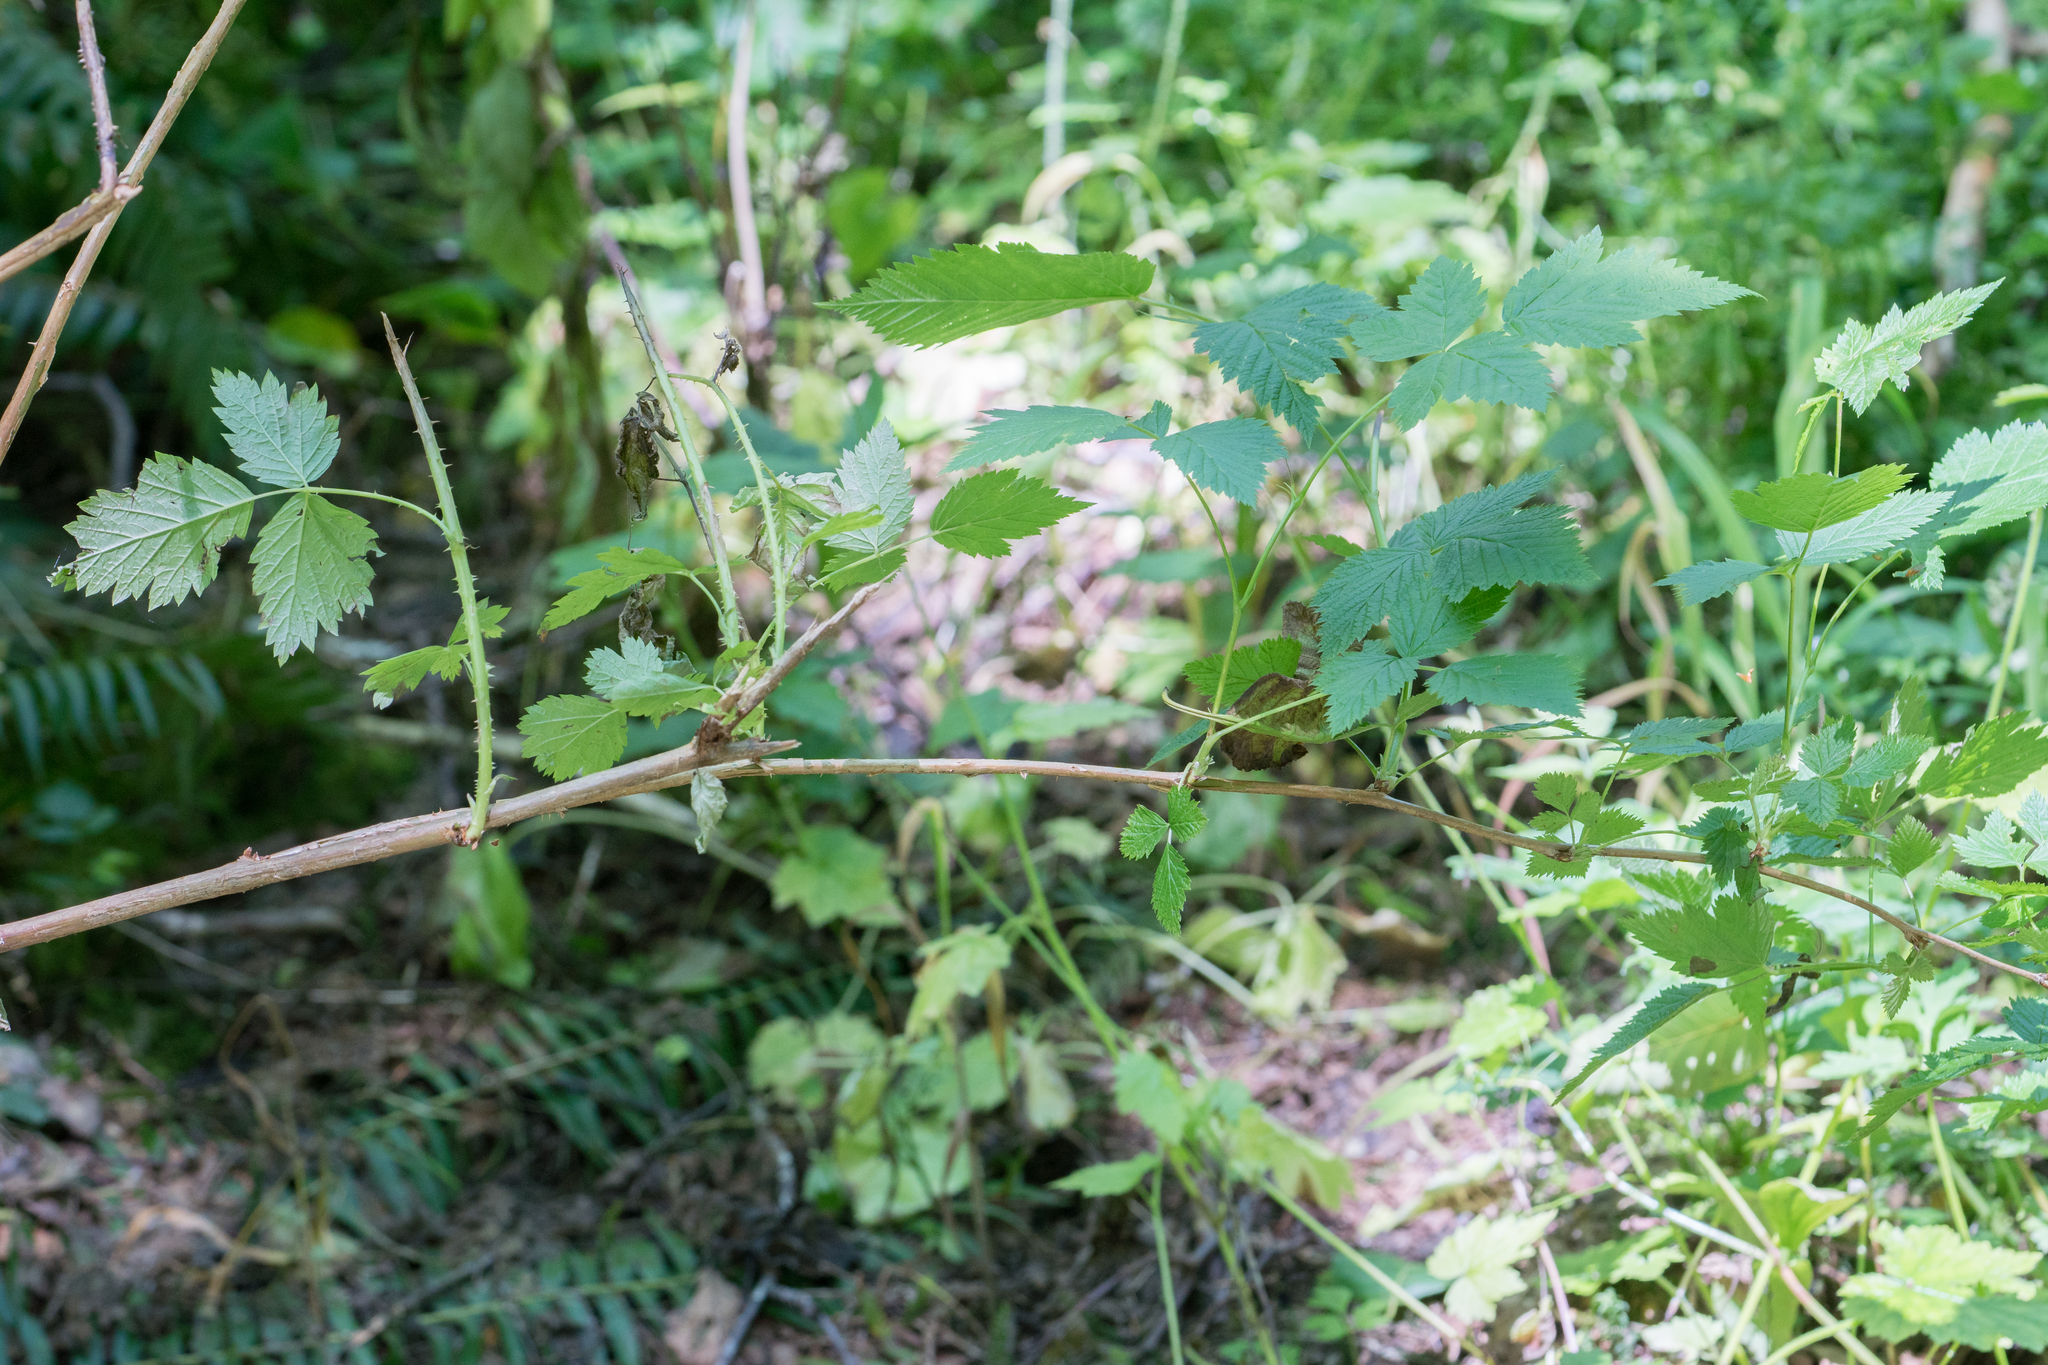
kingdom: Plantae
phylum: Tracheophyta
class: Magnoliopsida
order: Rosales
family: Rosaceae
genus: Rubus
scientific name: Rubus spectabilis
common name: Salmonberry
